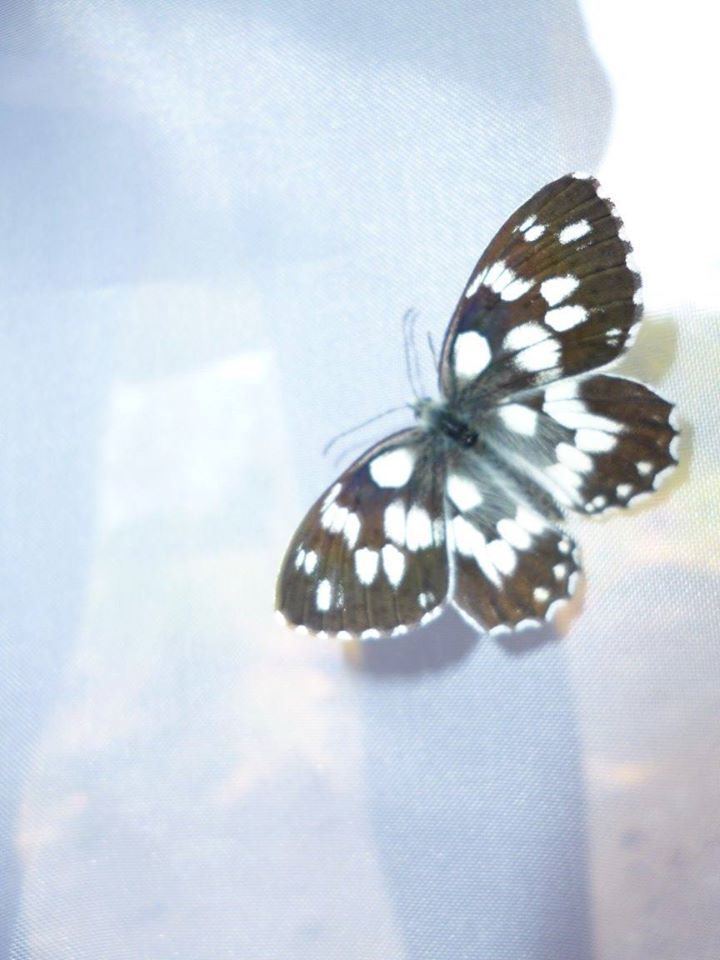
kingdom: Animalia
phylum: Arthropoda
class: Insecta
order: Lepidoptera
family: Nymphalidae
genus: Melanargia
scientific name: Melanargia galathea
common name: Marbled white
